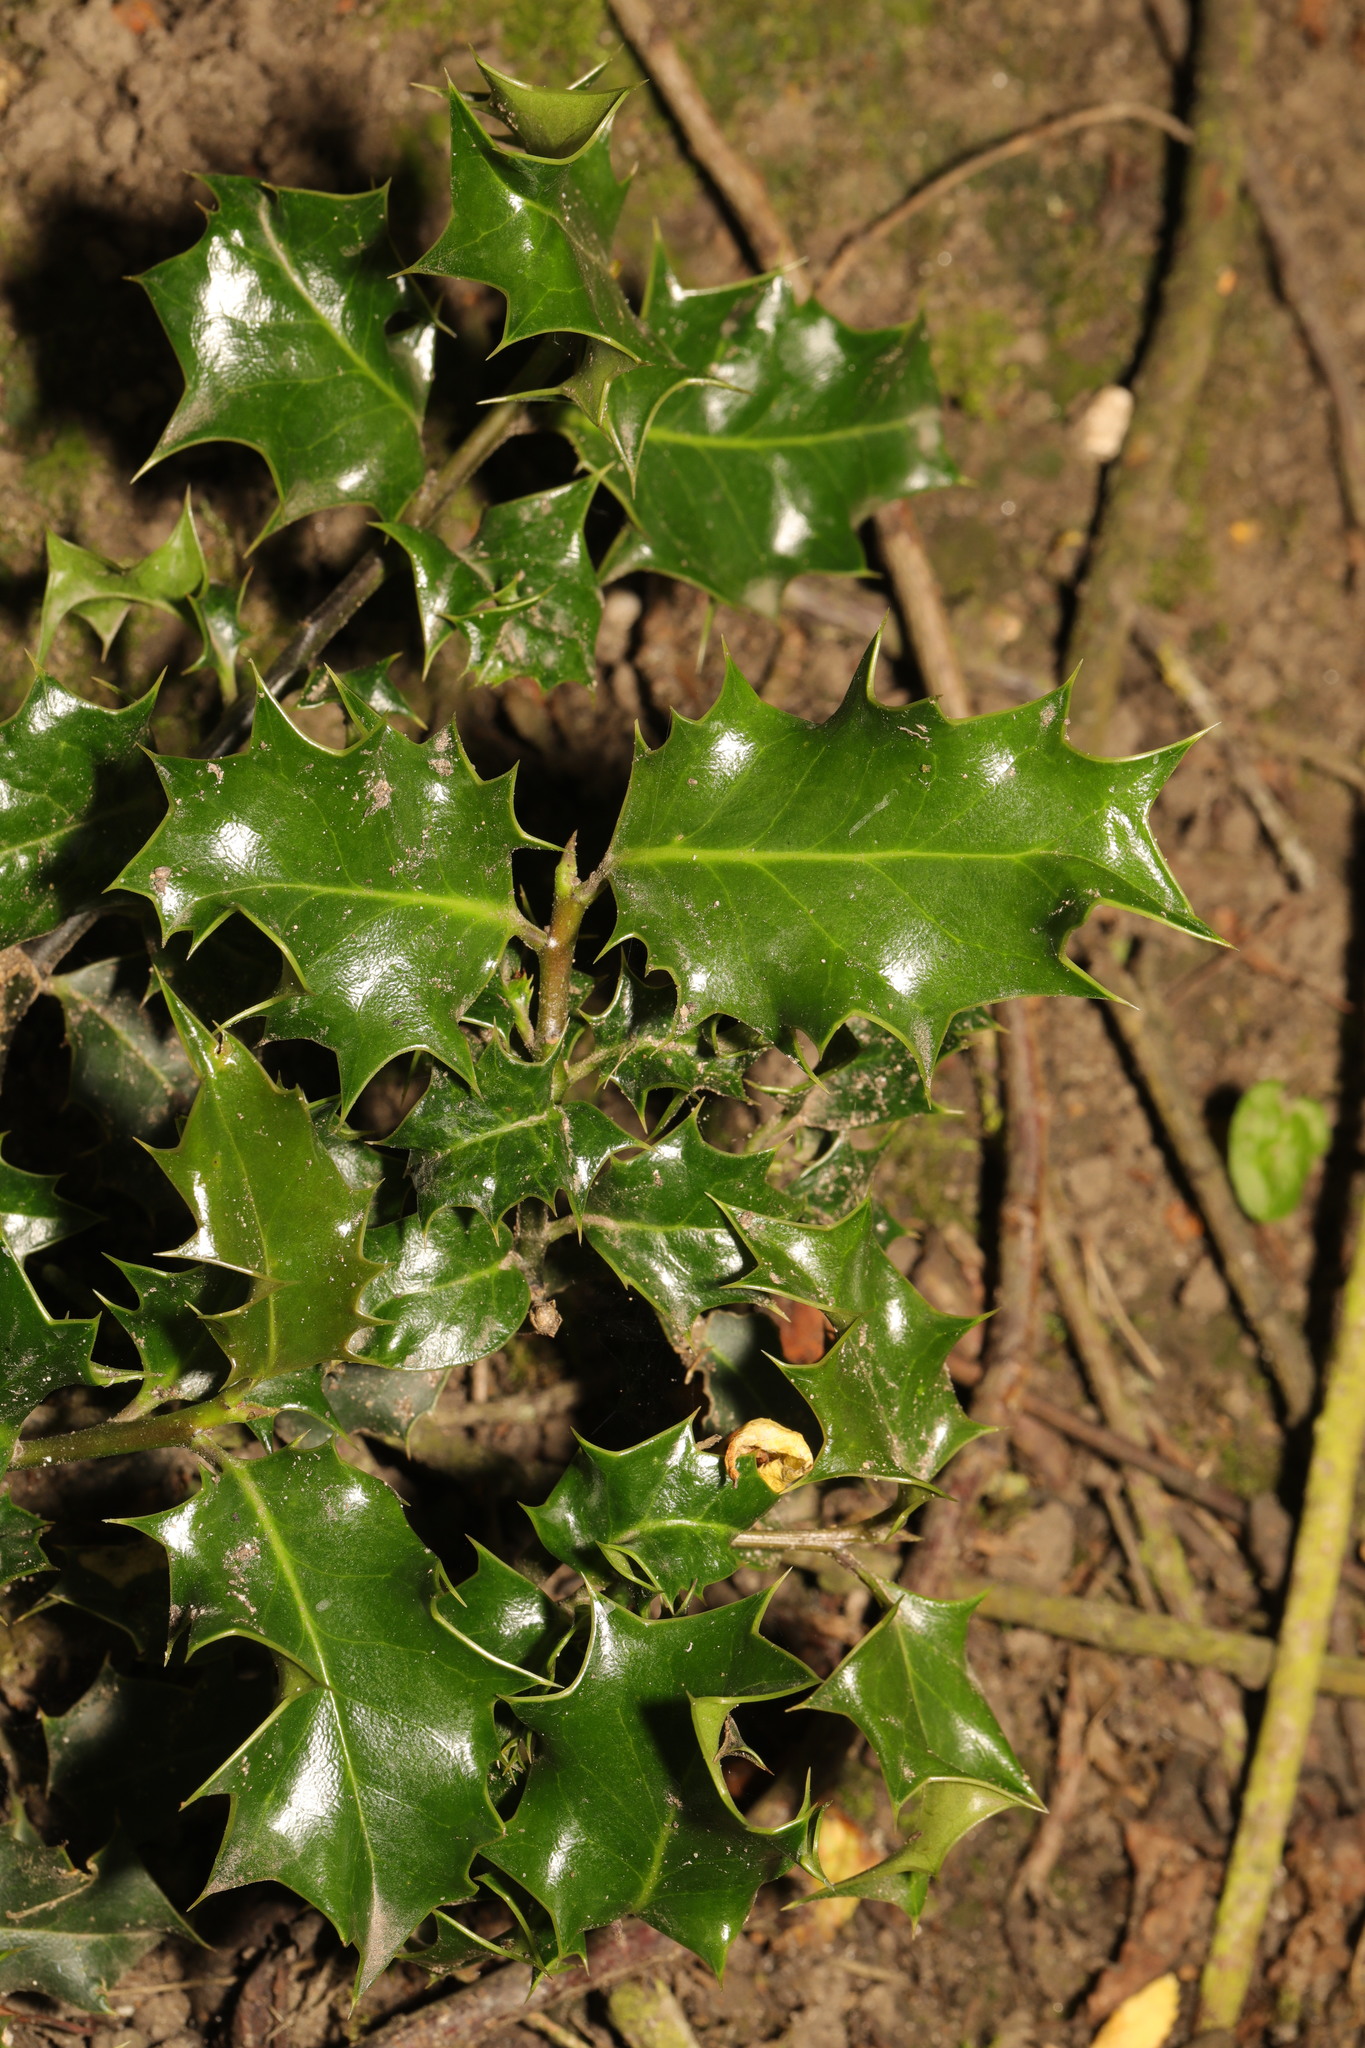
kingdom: Plantae
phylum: Tracheophyta
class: Magnoliopsida
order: Aquifoliales
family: Aquifoliaceae
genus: Ilex
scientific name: Ilex aquifolium
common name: English holly
